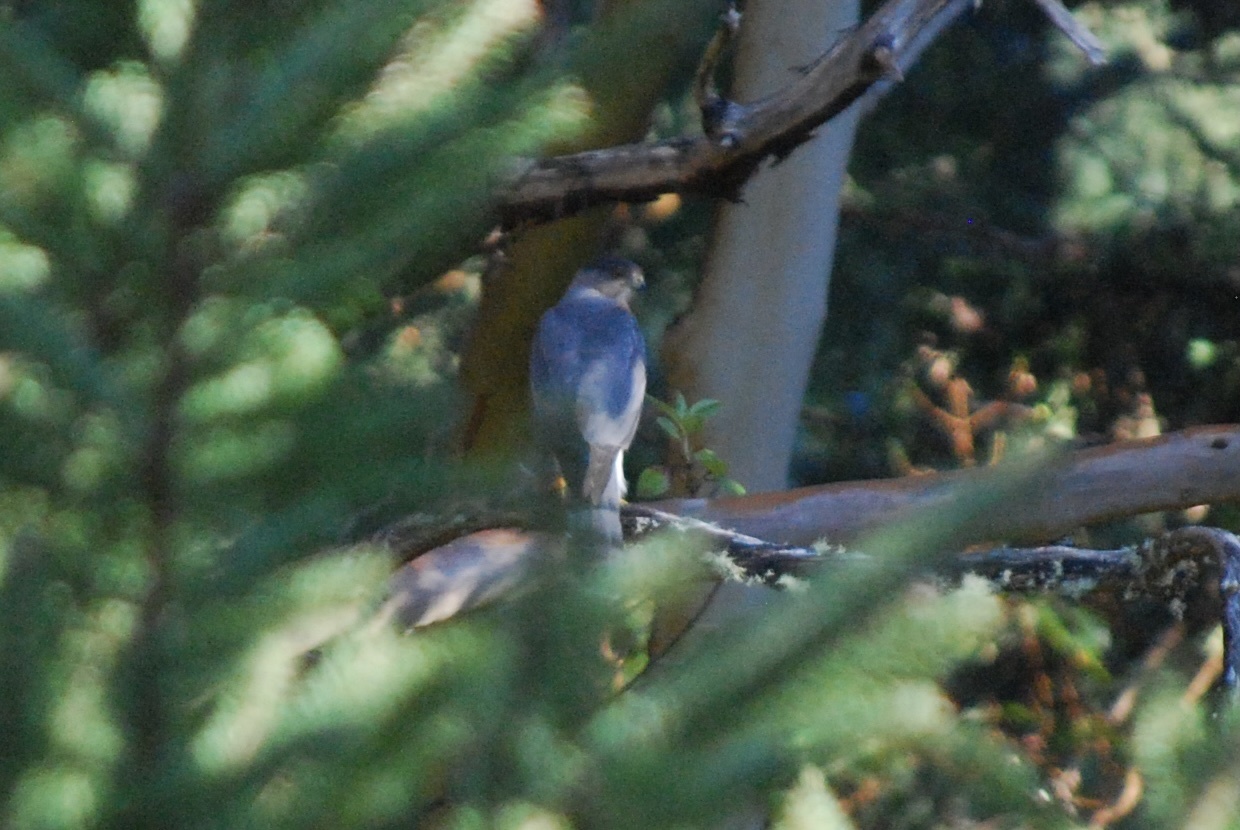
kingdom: Animalia
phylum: Chordata
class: Aves
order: Accipitriformes
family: Accipitridae
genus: Accipiter
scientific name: Accipiter cooperii
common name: Cooper's hawk
